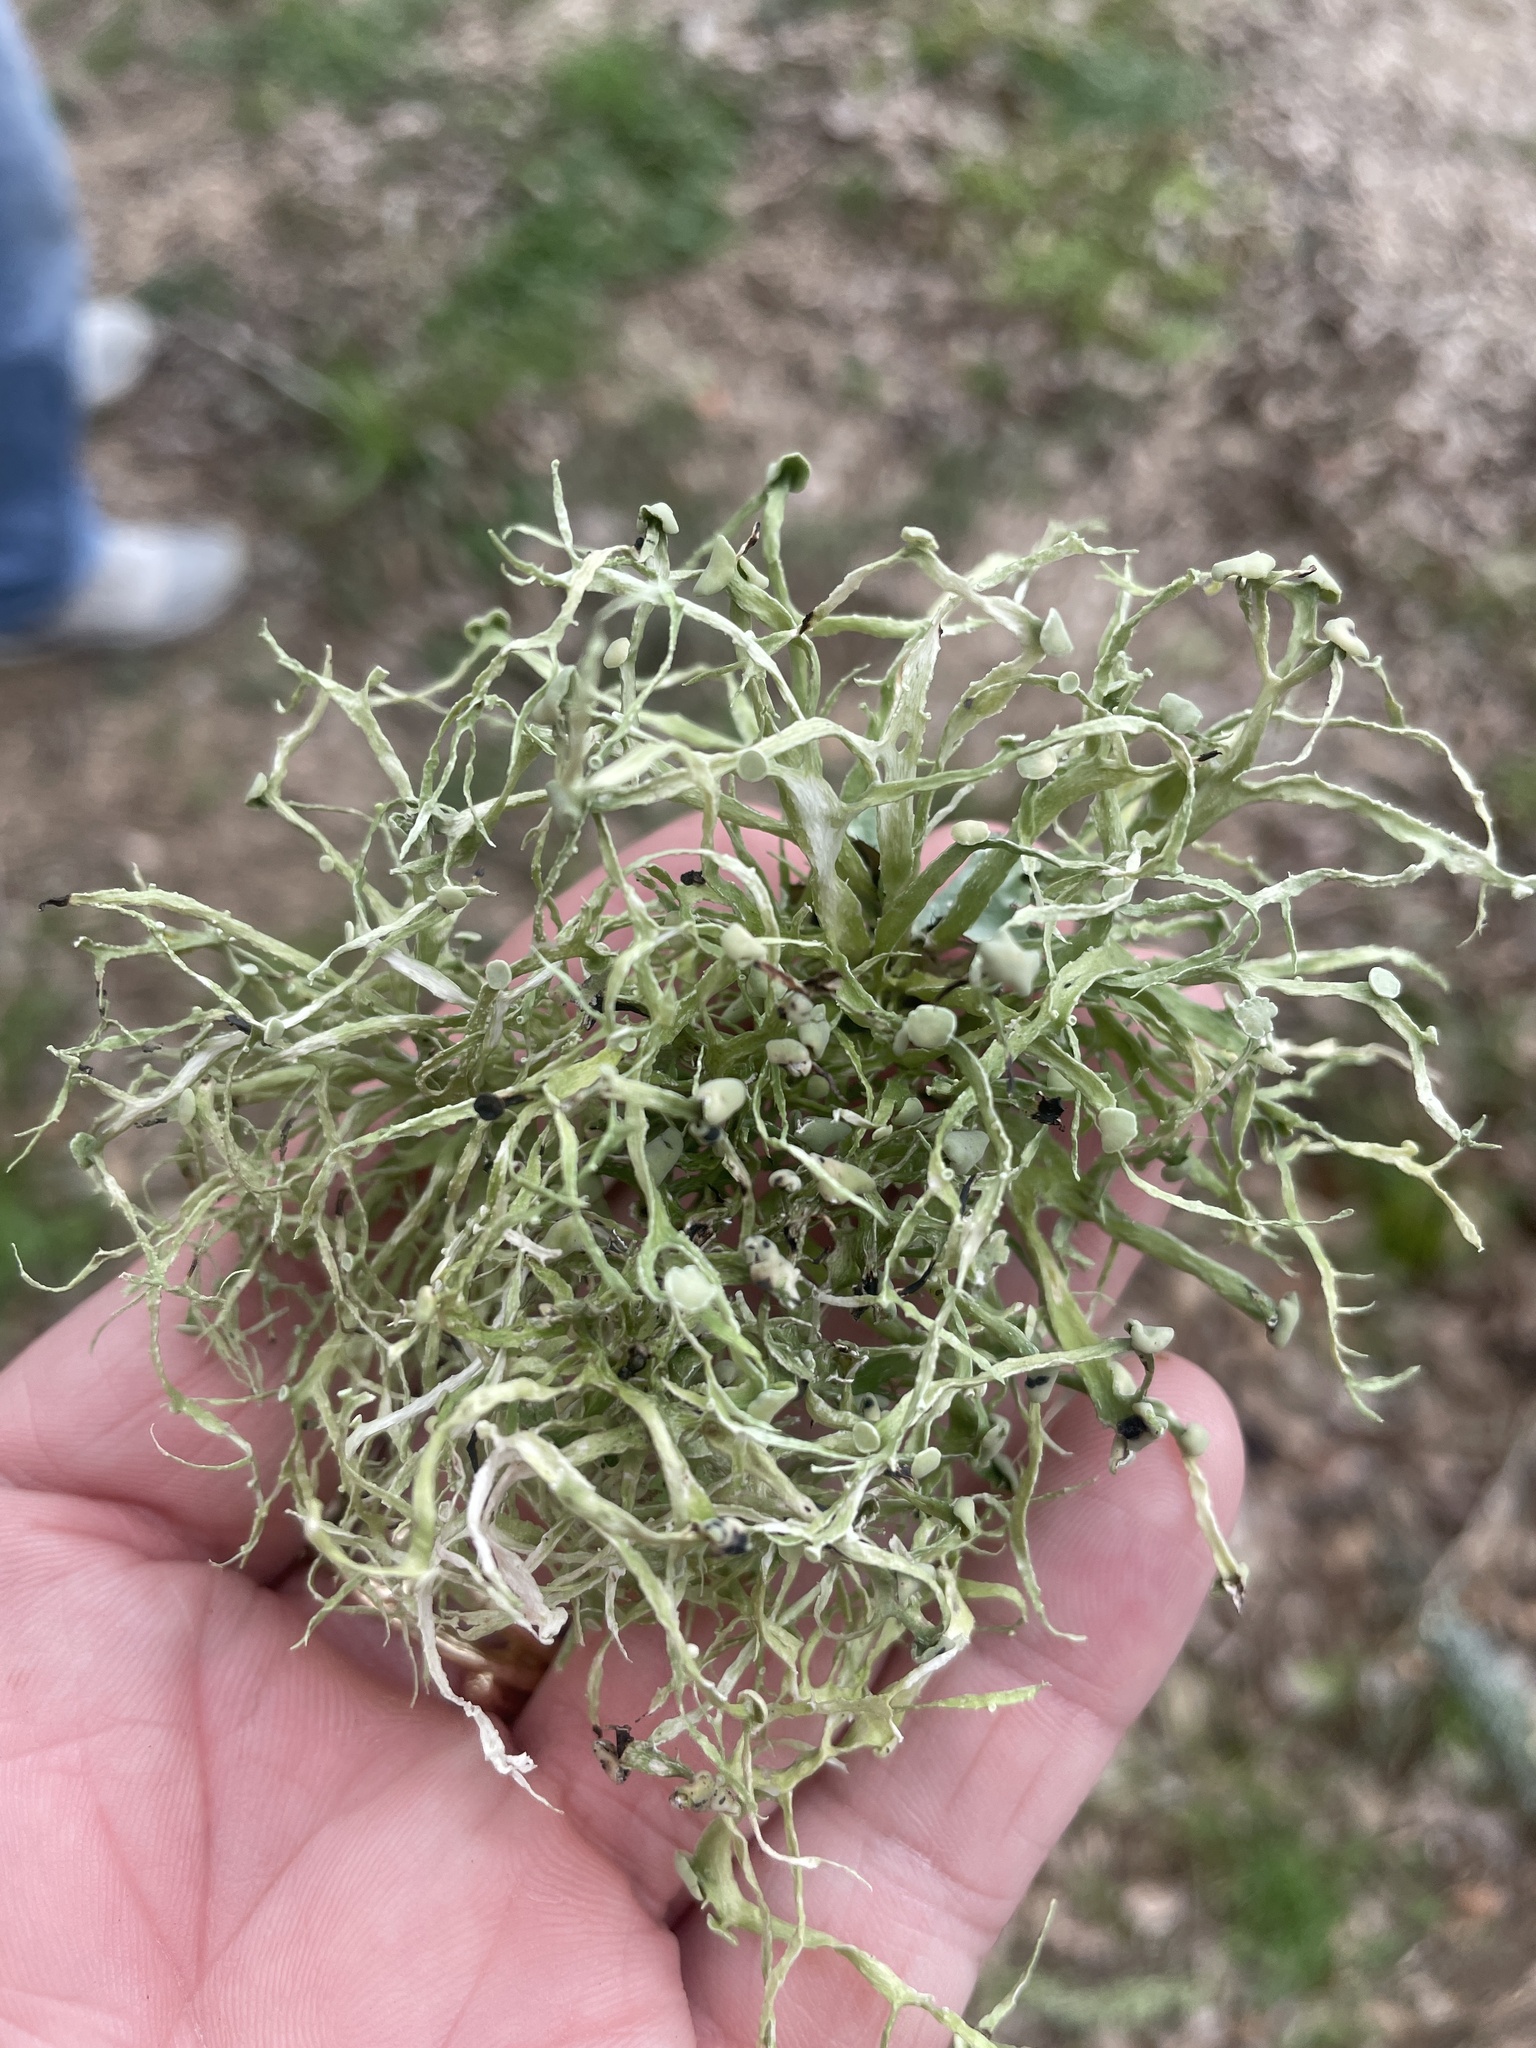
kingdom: Fungi
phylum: Ascomycota
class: Lecanoromycetes
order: Lecanorales
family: Ramalinaceae
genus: Ramalina
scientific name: Ramalina farinacea
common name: Farinose cartilage lichen
